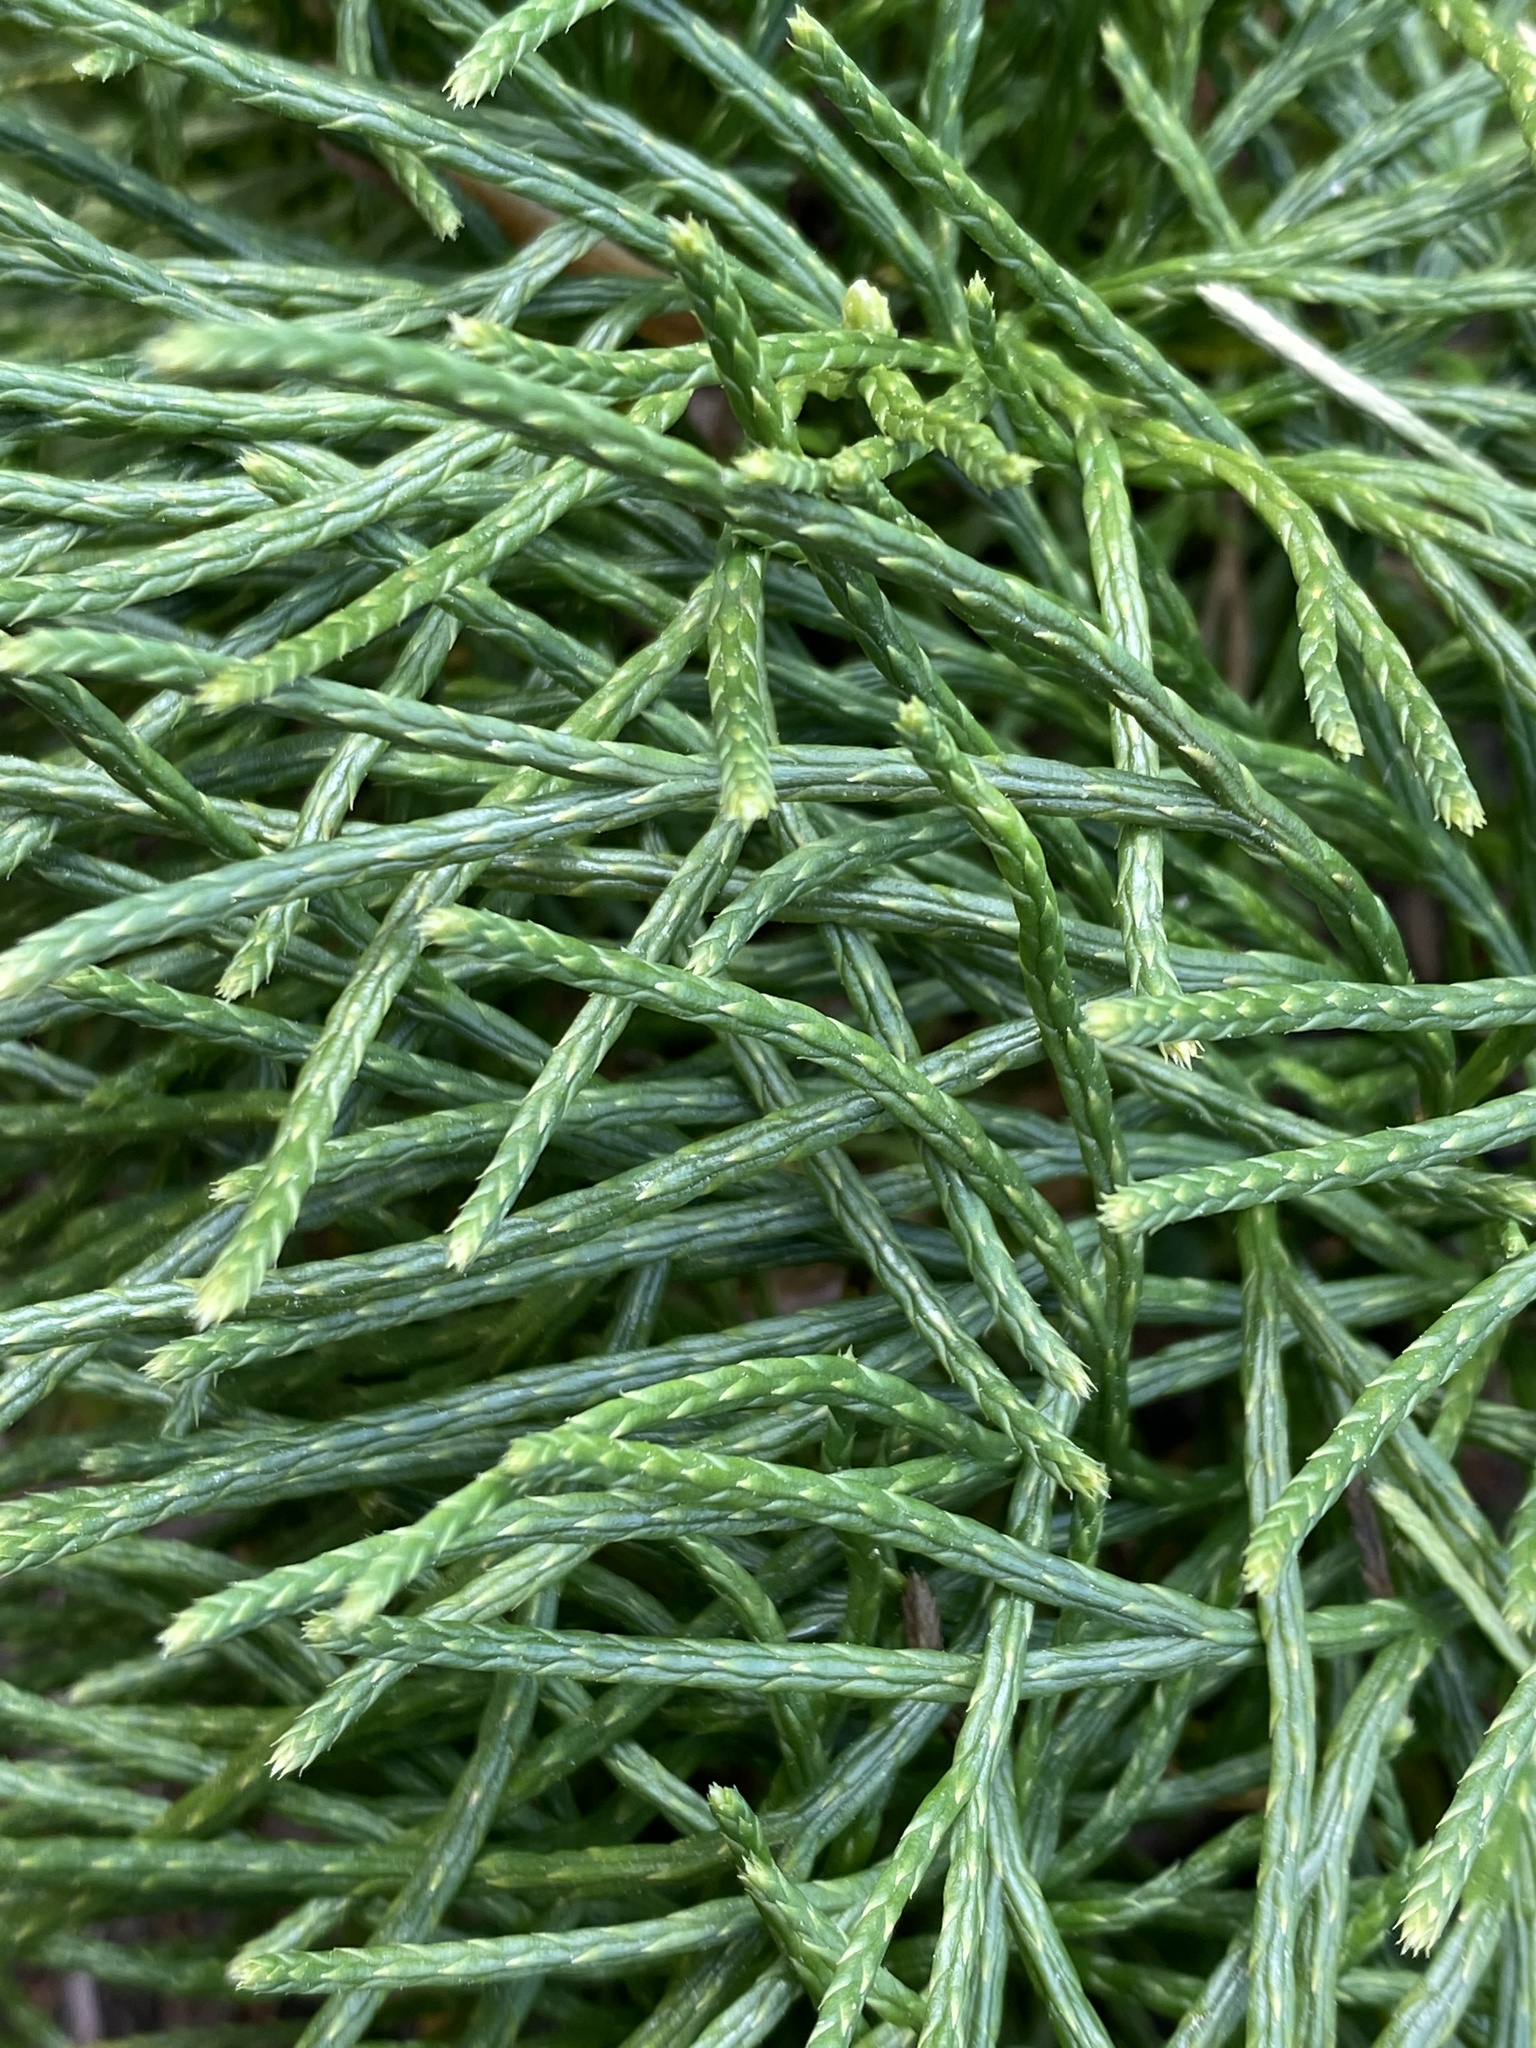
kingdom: Plantae
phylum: Tracheophyta
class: Lycopodiopsida
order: Lycopodiales
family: Lycopodiaceae
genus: Diphasiastrum
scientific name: Diphasiastrum digitatum
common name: Southern running-pine
